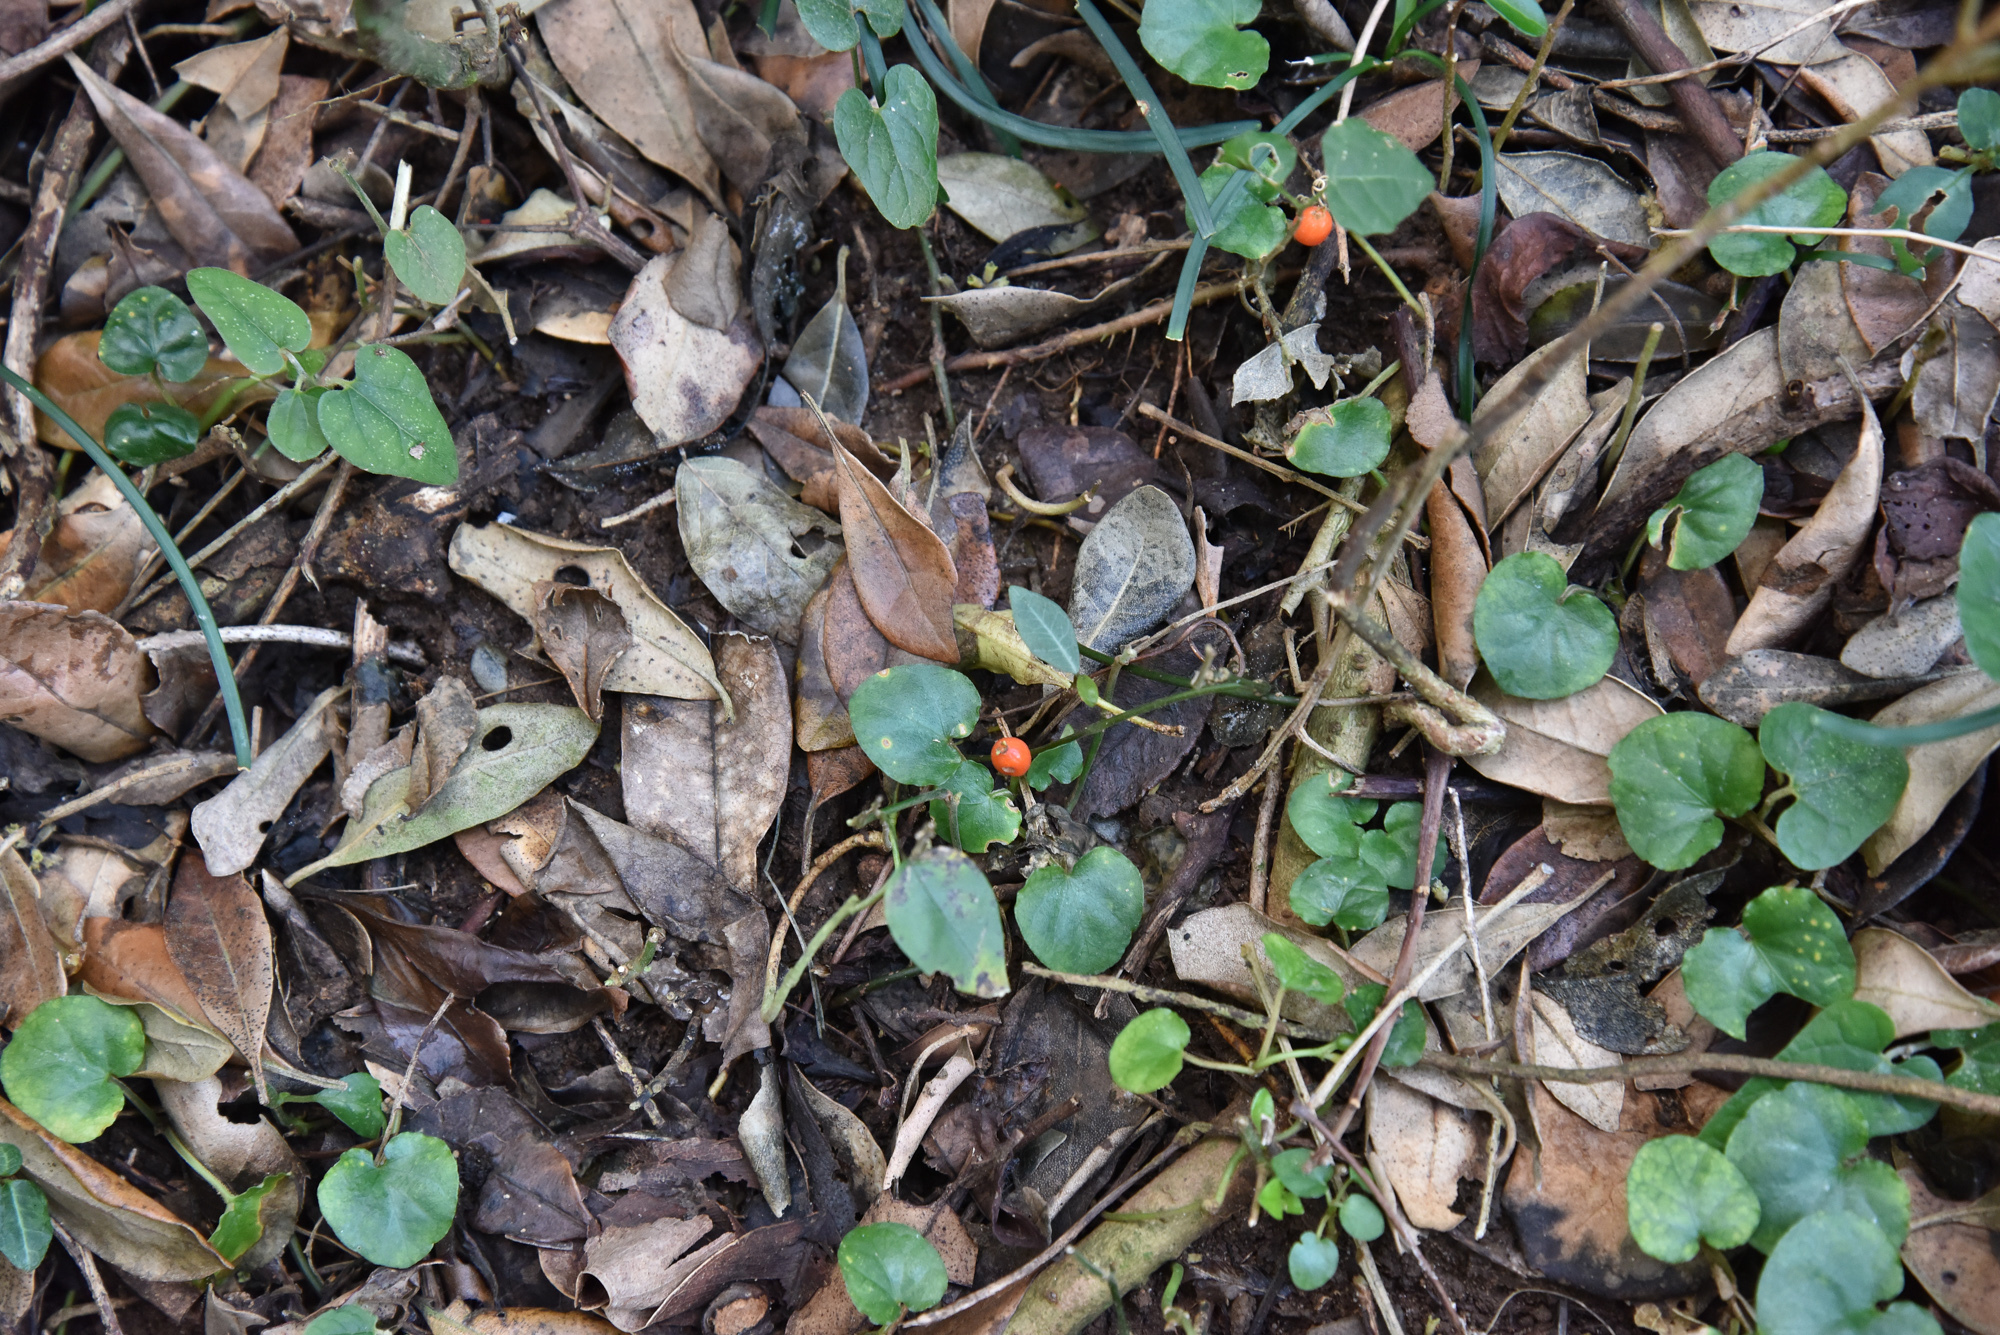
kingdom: Plantae
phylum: Tracheophyta
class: Magnoliopsida
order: Gentianales
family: Rubiaceae
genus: Geophila
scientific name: Geophila herbacea
